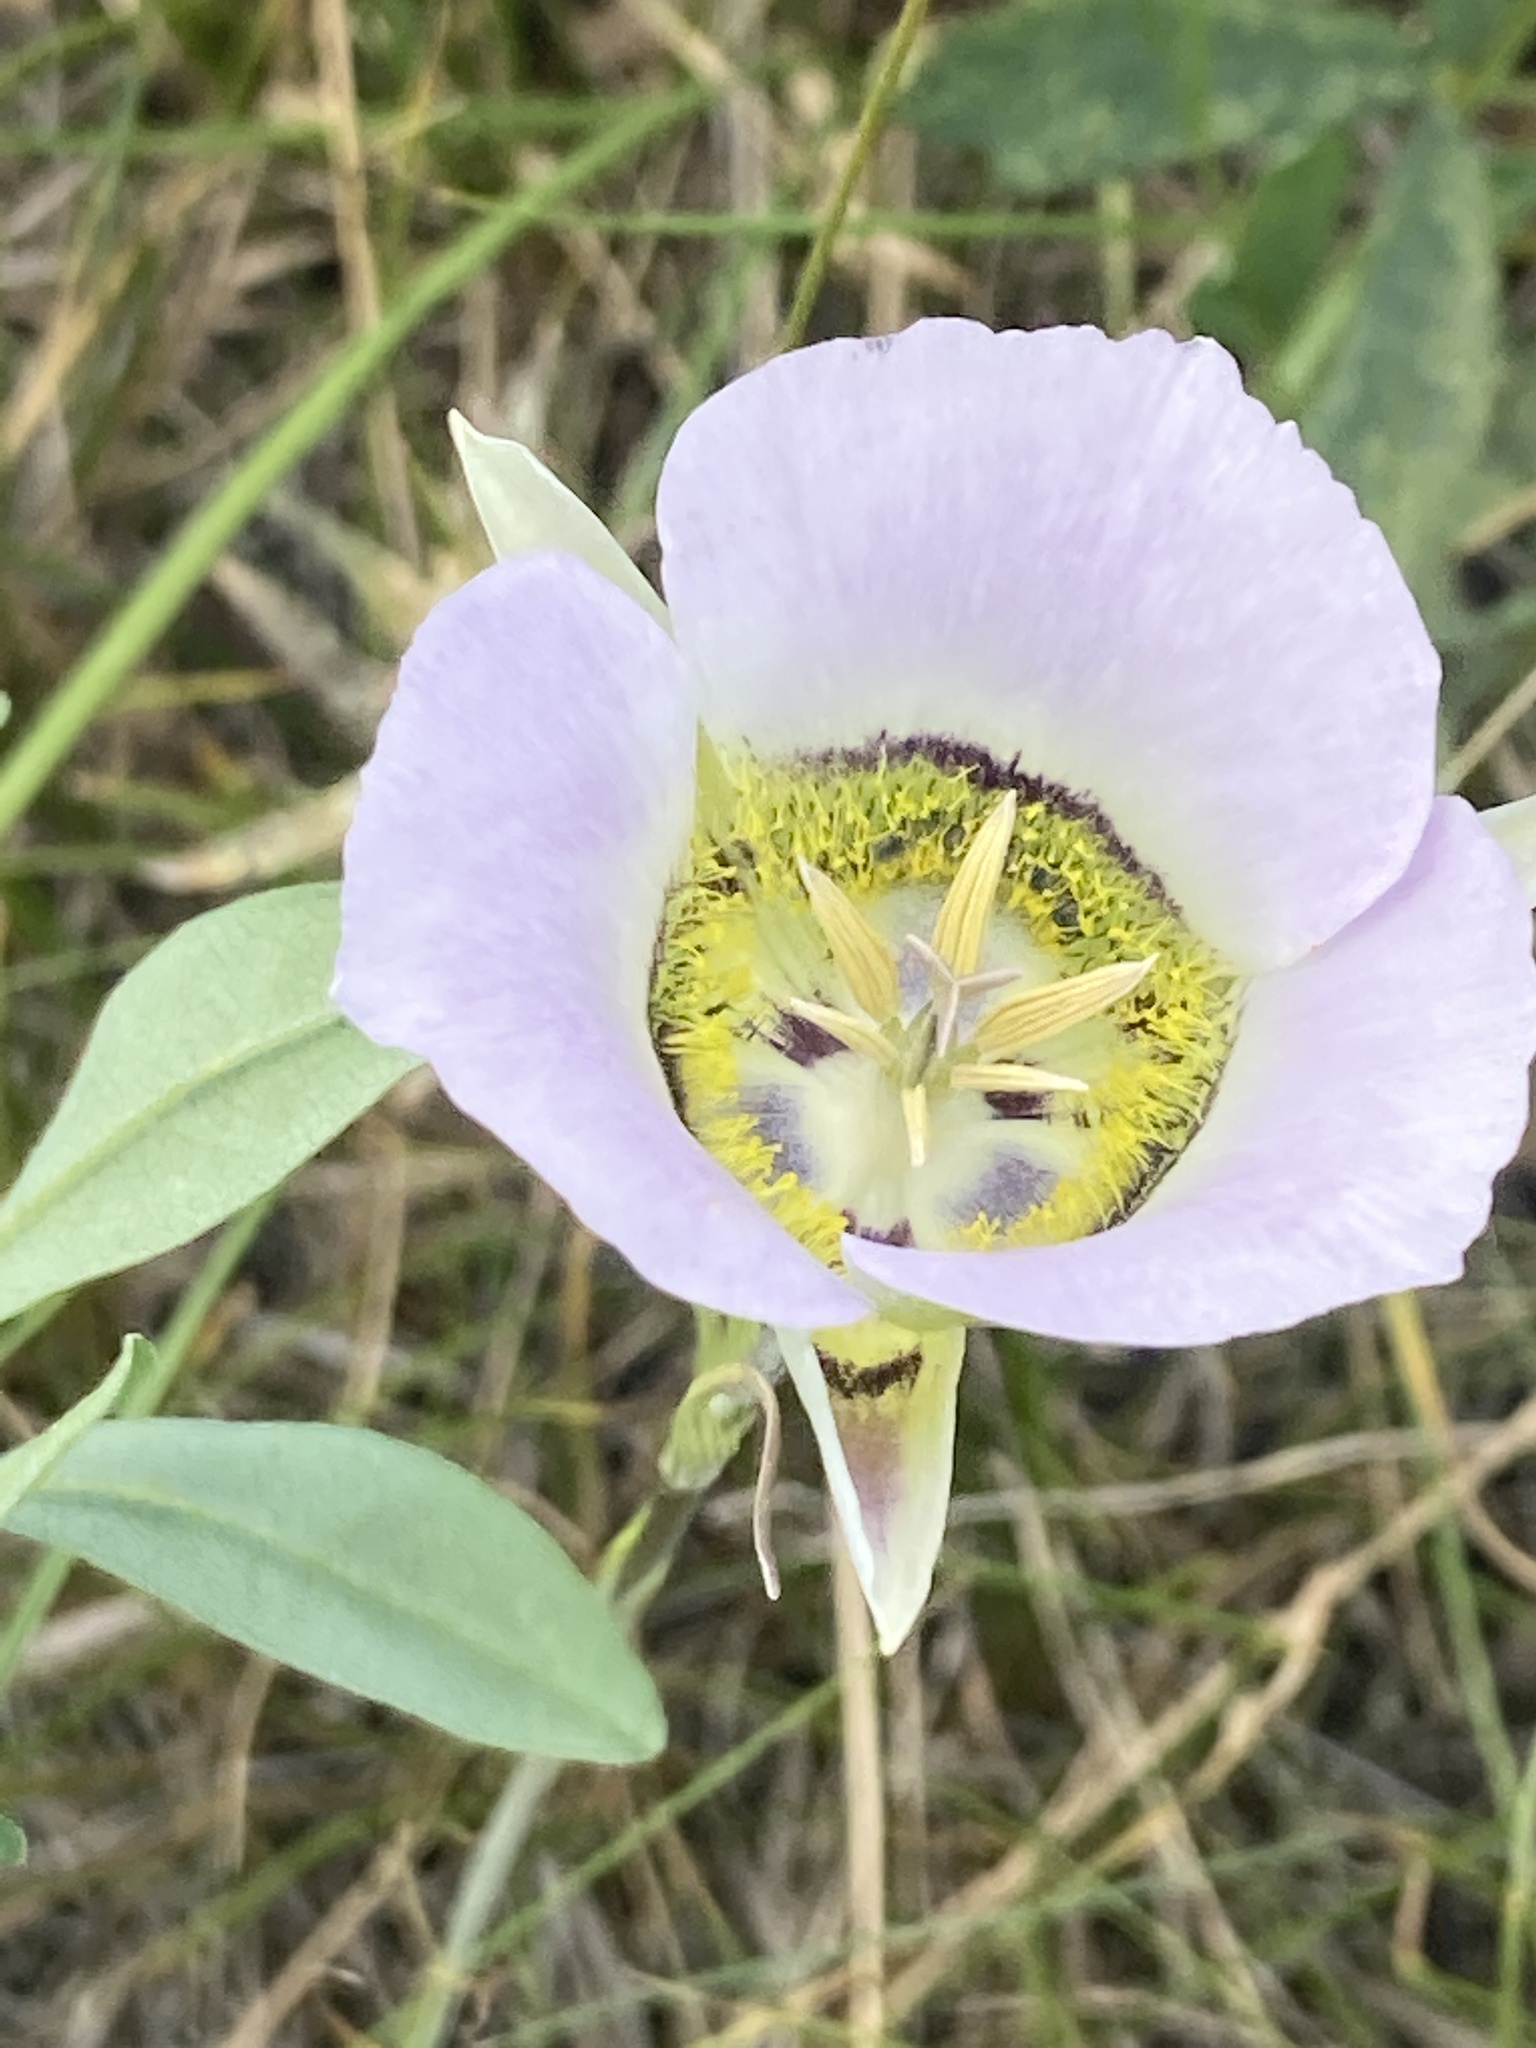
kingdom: Plantae
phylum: Tracheophyta
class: Liliopsida
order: Liliales
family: Liliaceae
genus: Calochortus
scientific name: Calochortus gunnisonii
